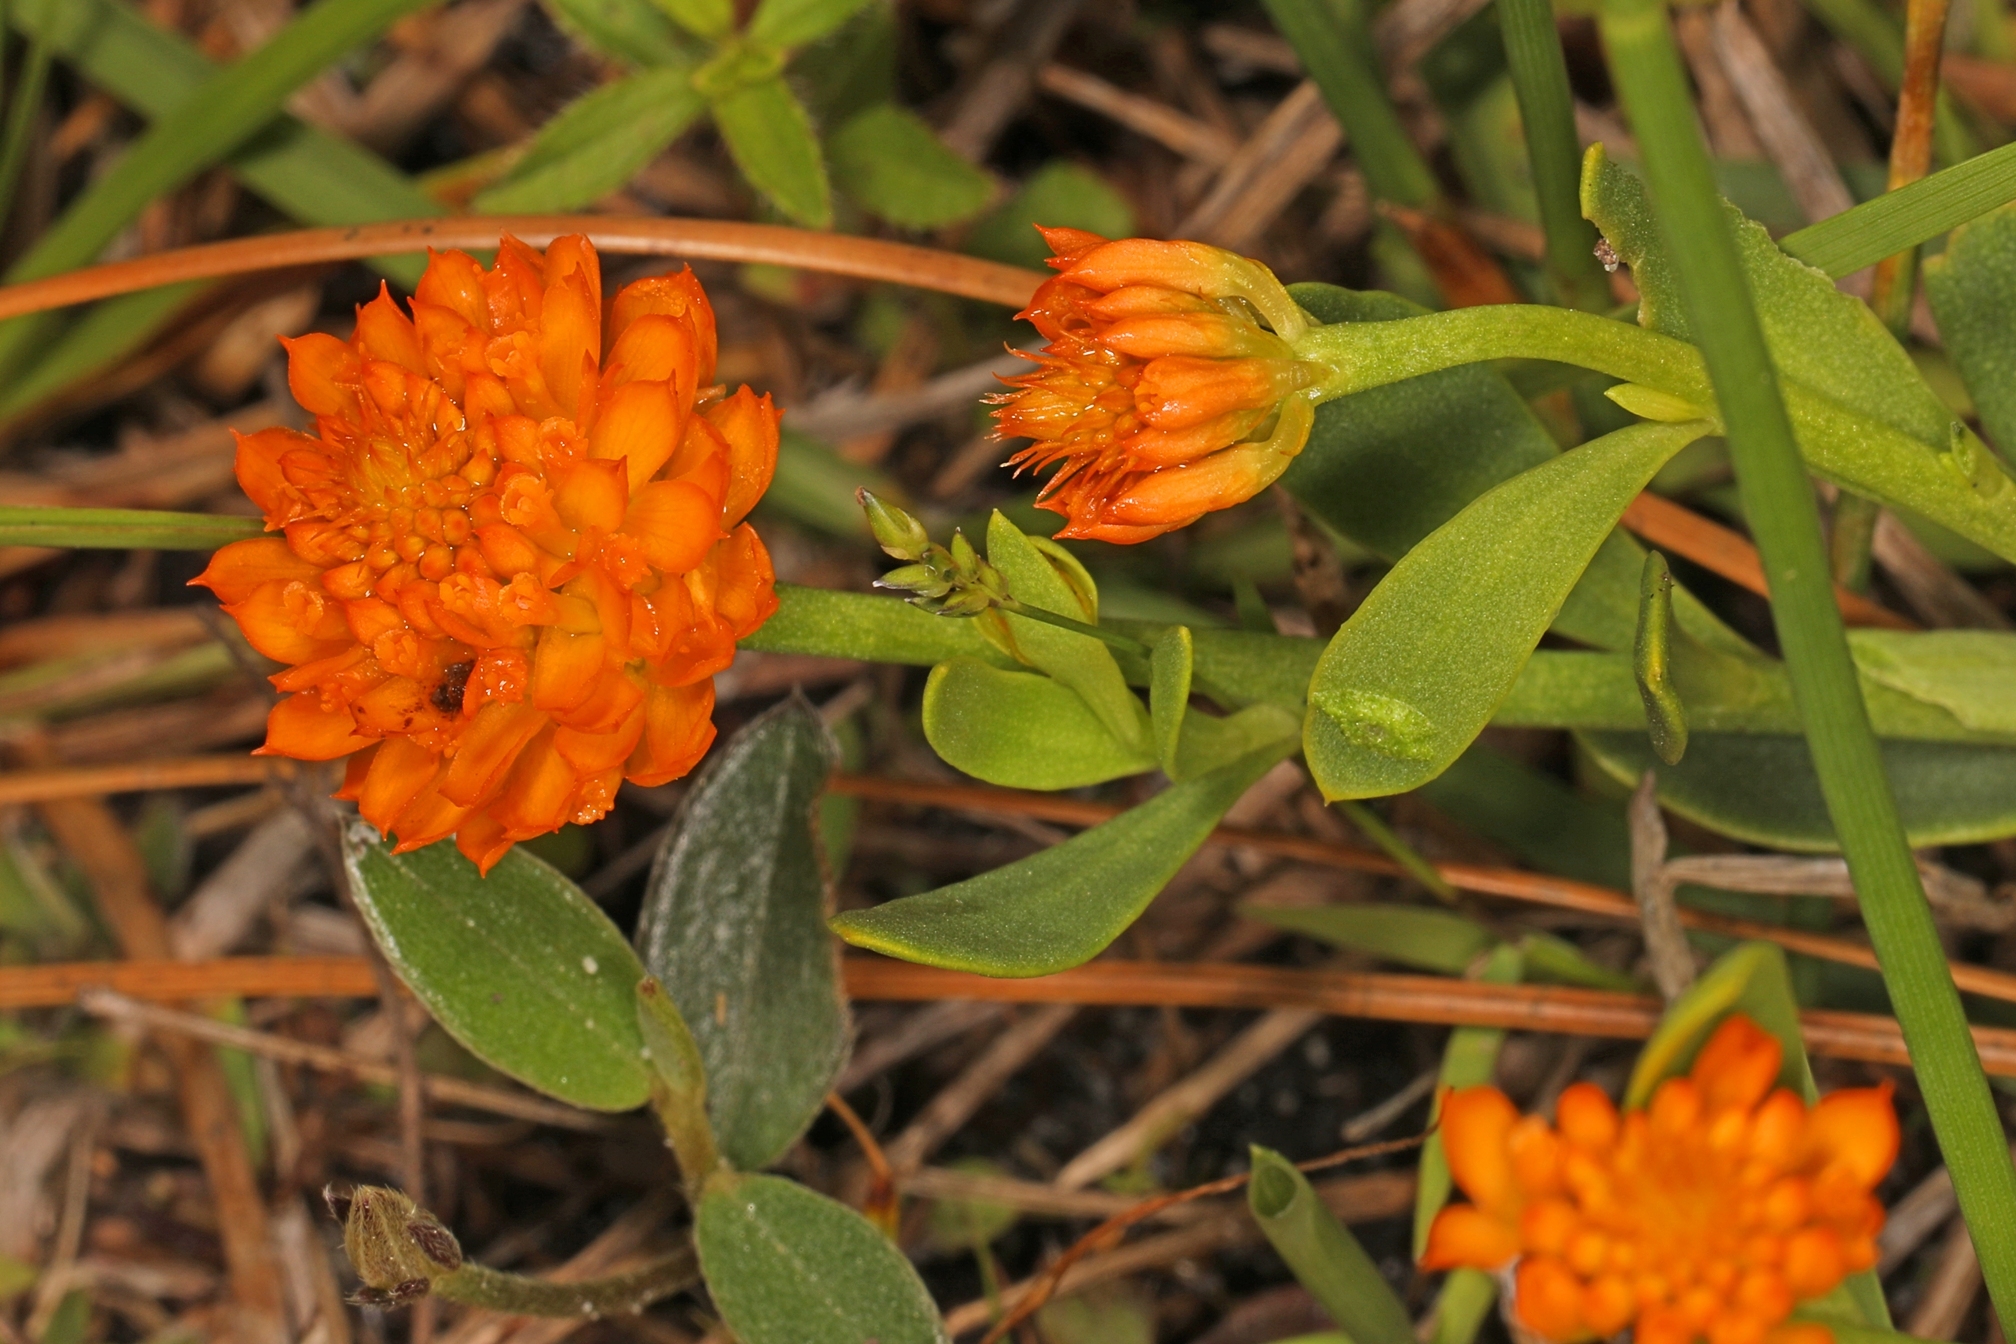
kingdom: Plantae
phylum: Tracheophyta
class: Magnoliopsida
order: Fabales
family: Polygalaceae
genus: Polygala
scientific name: Polygala lutea
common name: Orange milkwort
